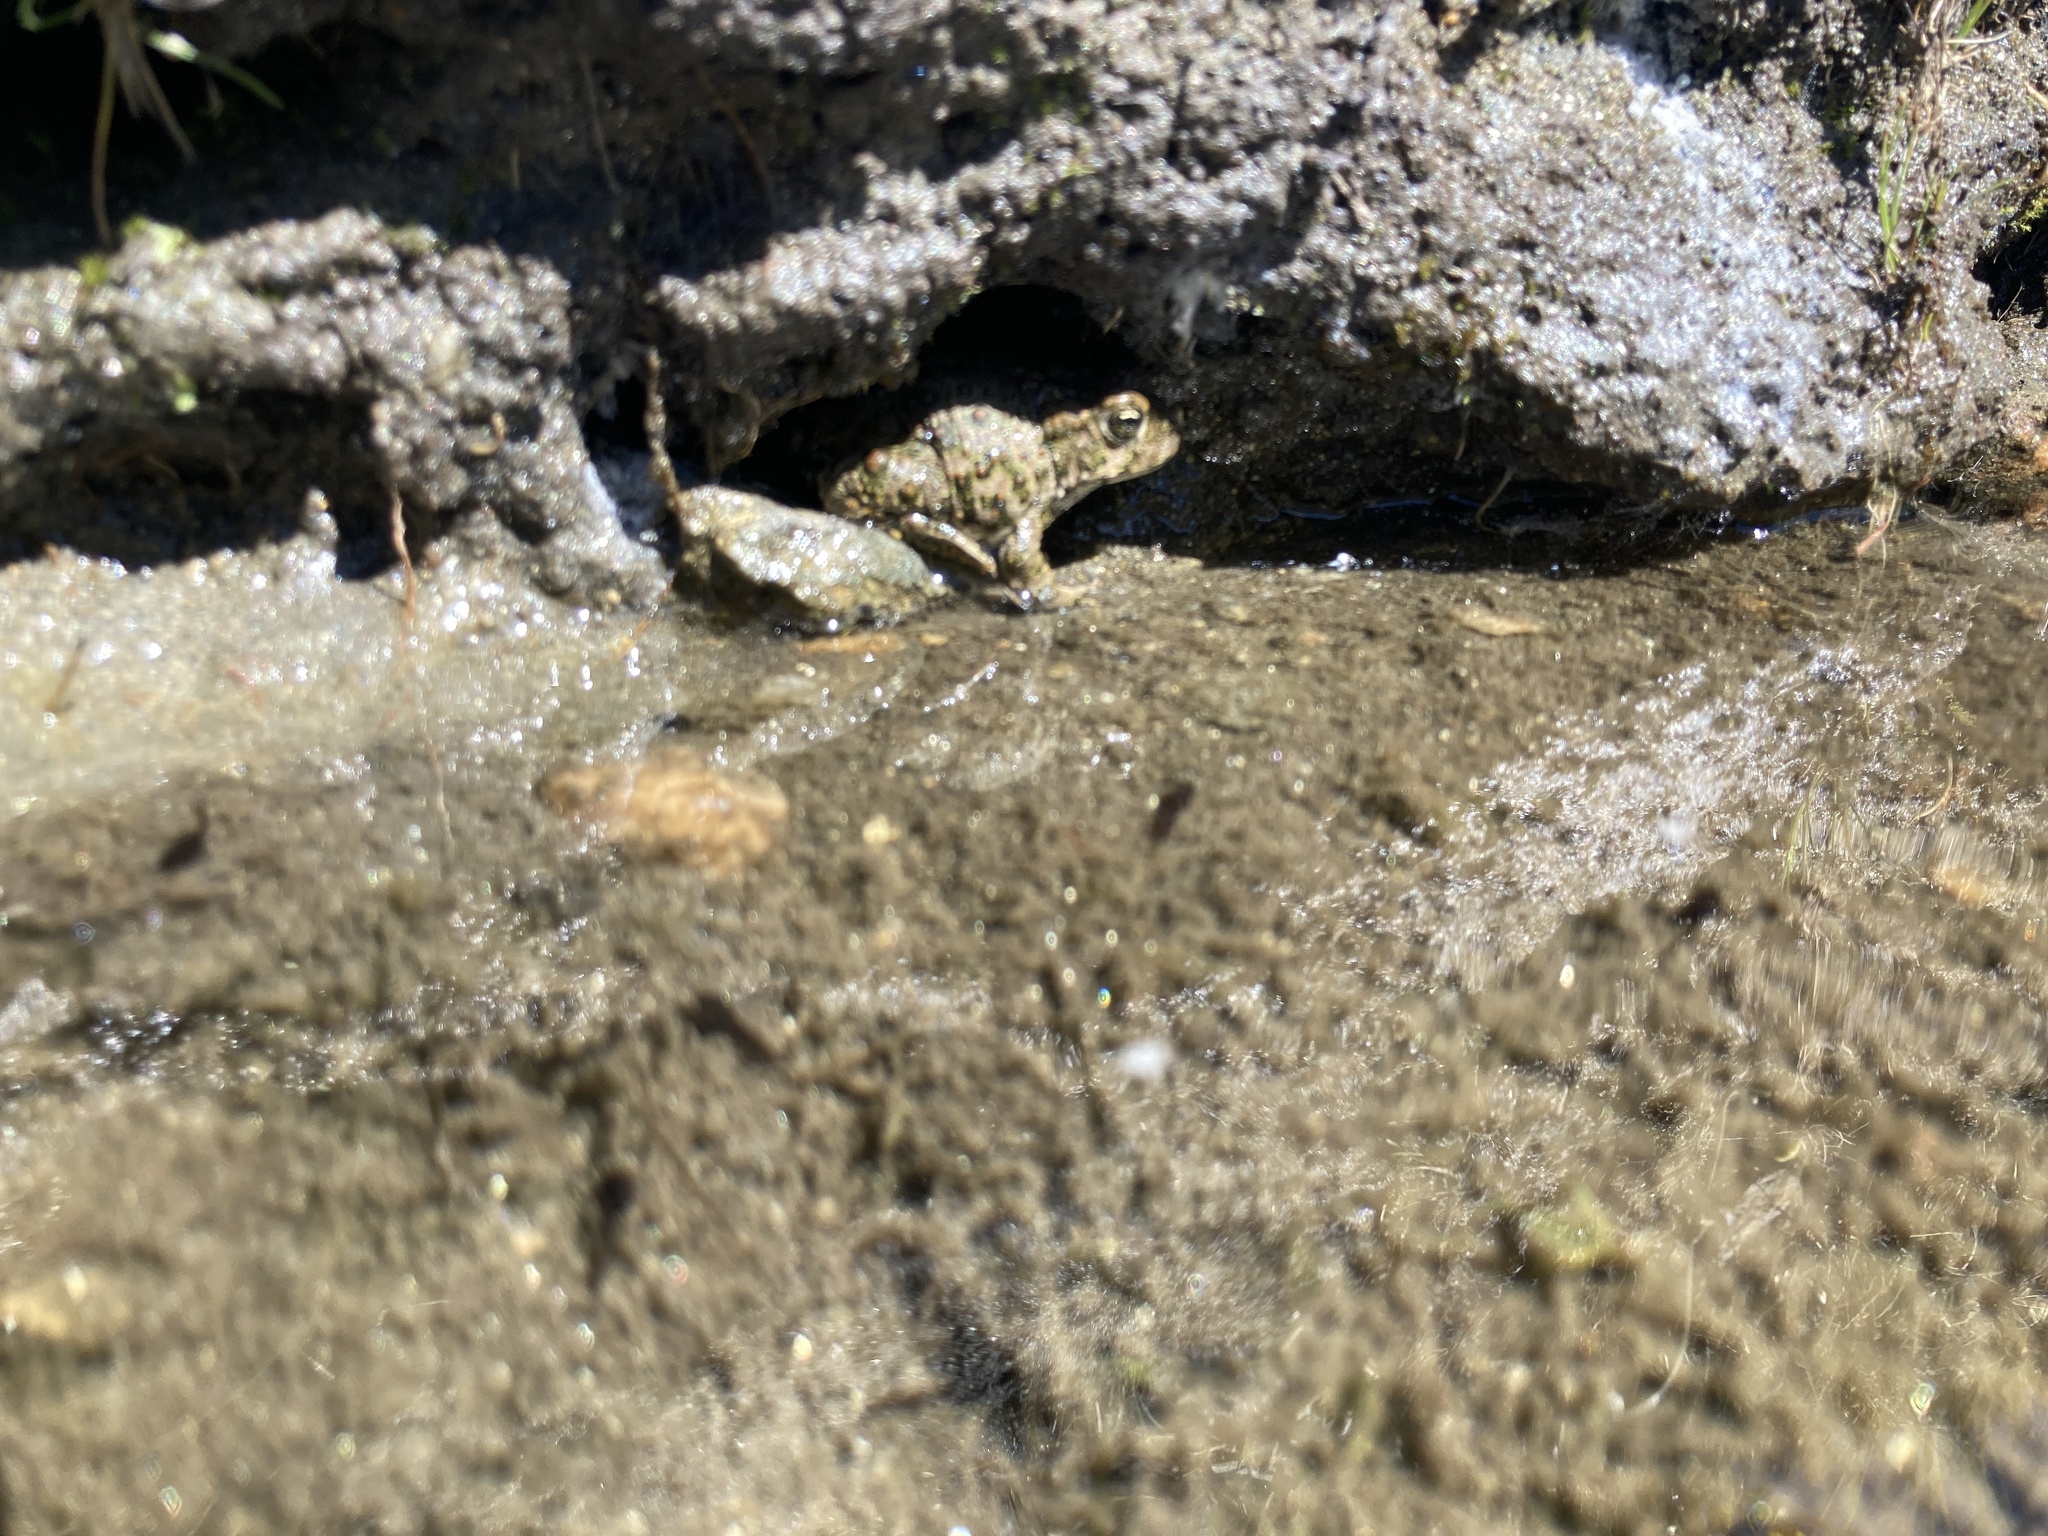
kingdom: Animalia
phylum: Chordata
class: Amphibia
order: Anura
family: Bufonidae
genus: Anaxyrus
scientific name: Anaxyrus boreas
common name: Western toad
